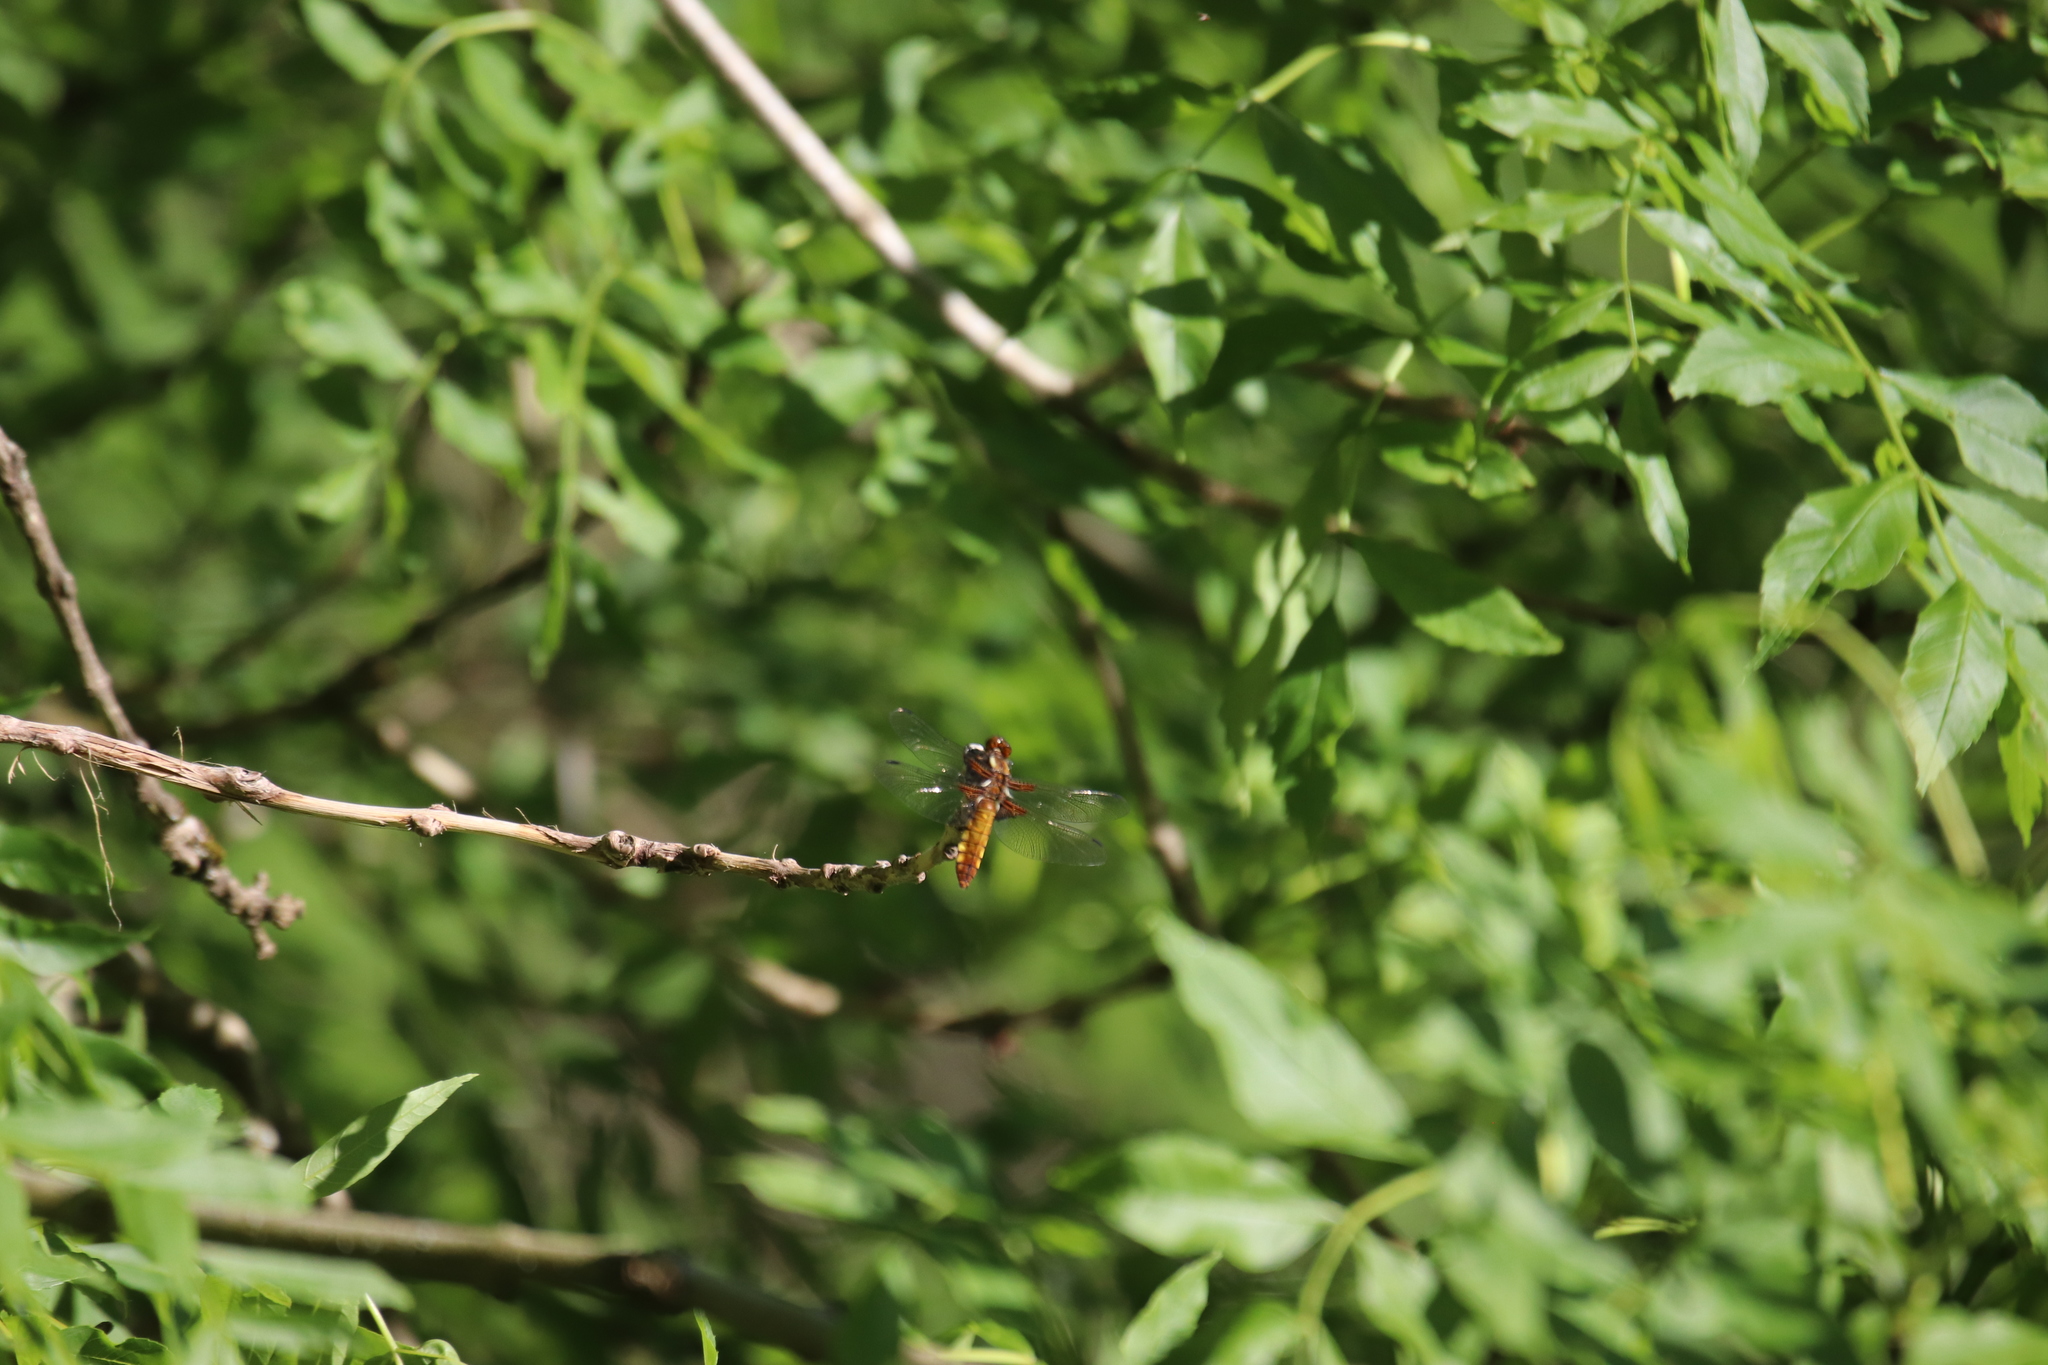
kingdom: Animalia
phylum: Arthropoda
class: Insecta
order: Odonata
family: Libellulidae
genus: Libellula
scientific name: Libellula depressa
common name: Broad-bodied chaser
